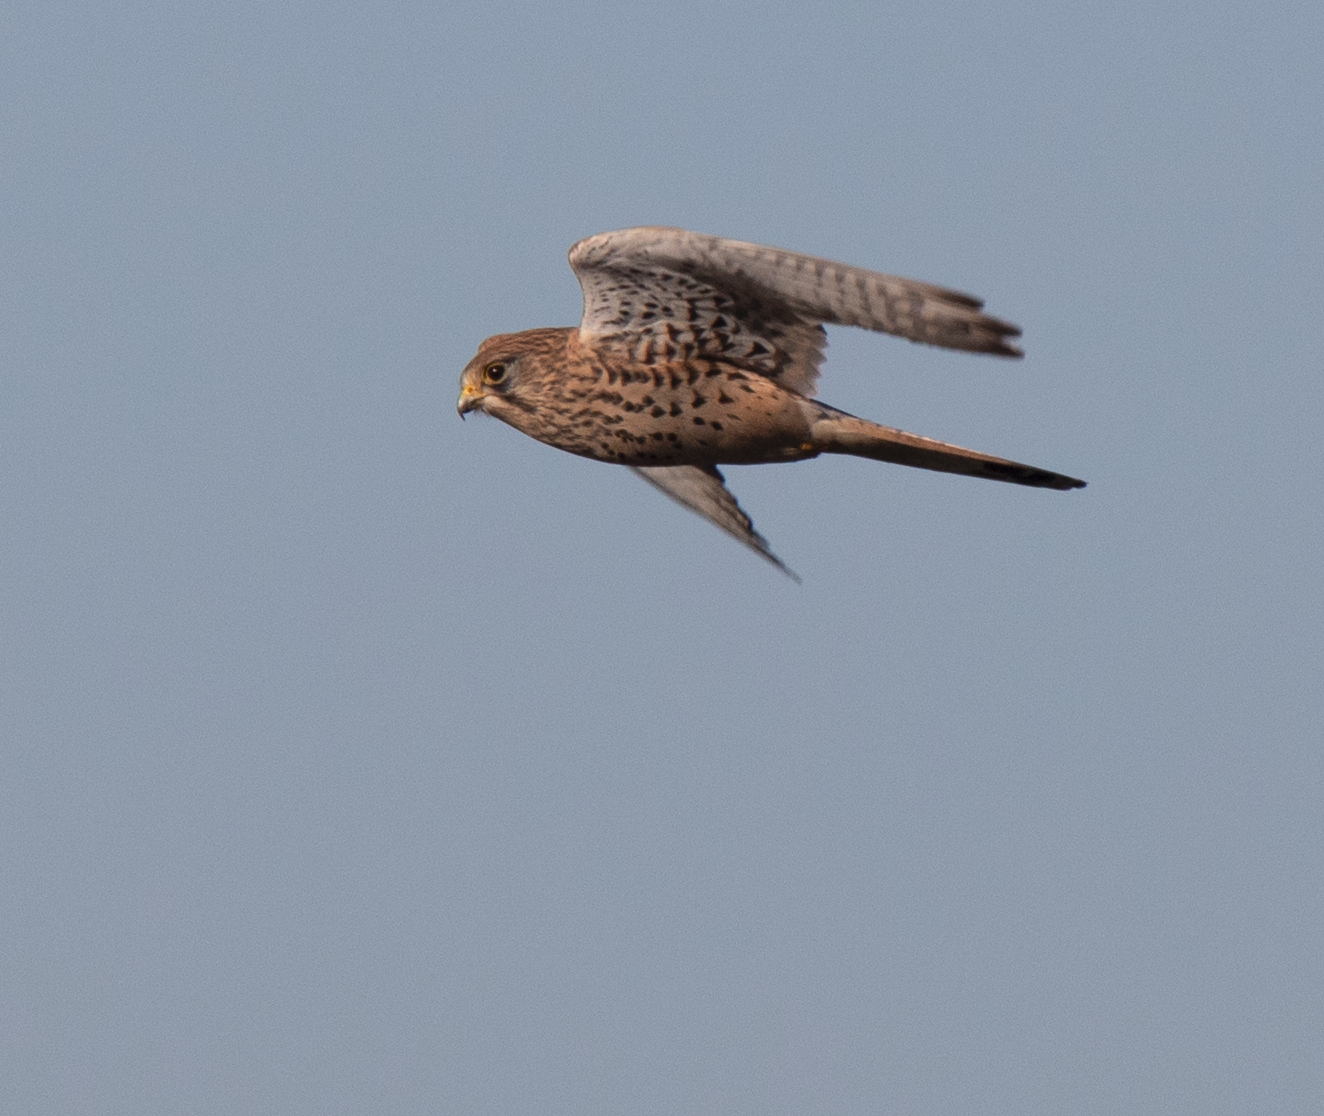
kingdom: Animalia
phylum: Chordata
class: Aves
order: Falconiformes
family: Falconidae
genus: Falco
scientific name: Falco tinnunculus
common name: Common kestrel
